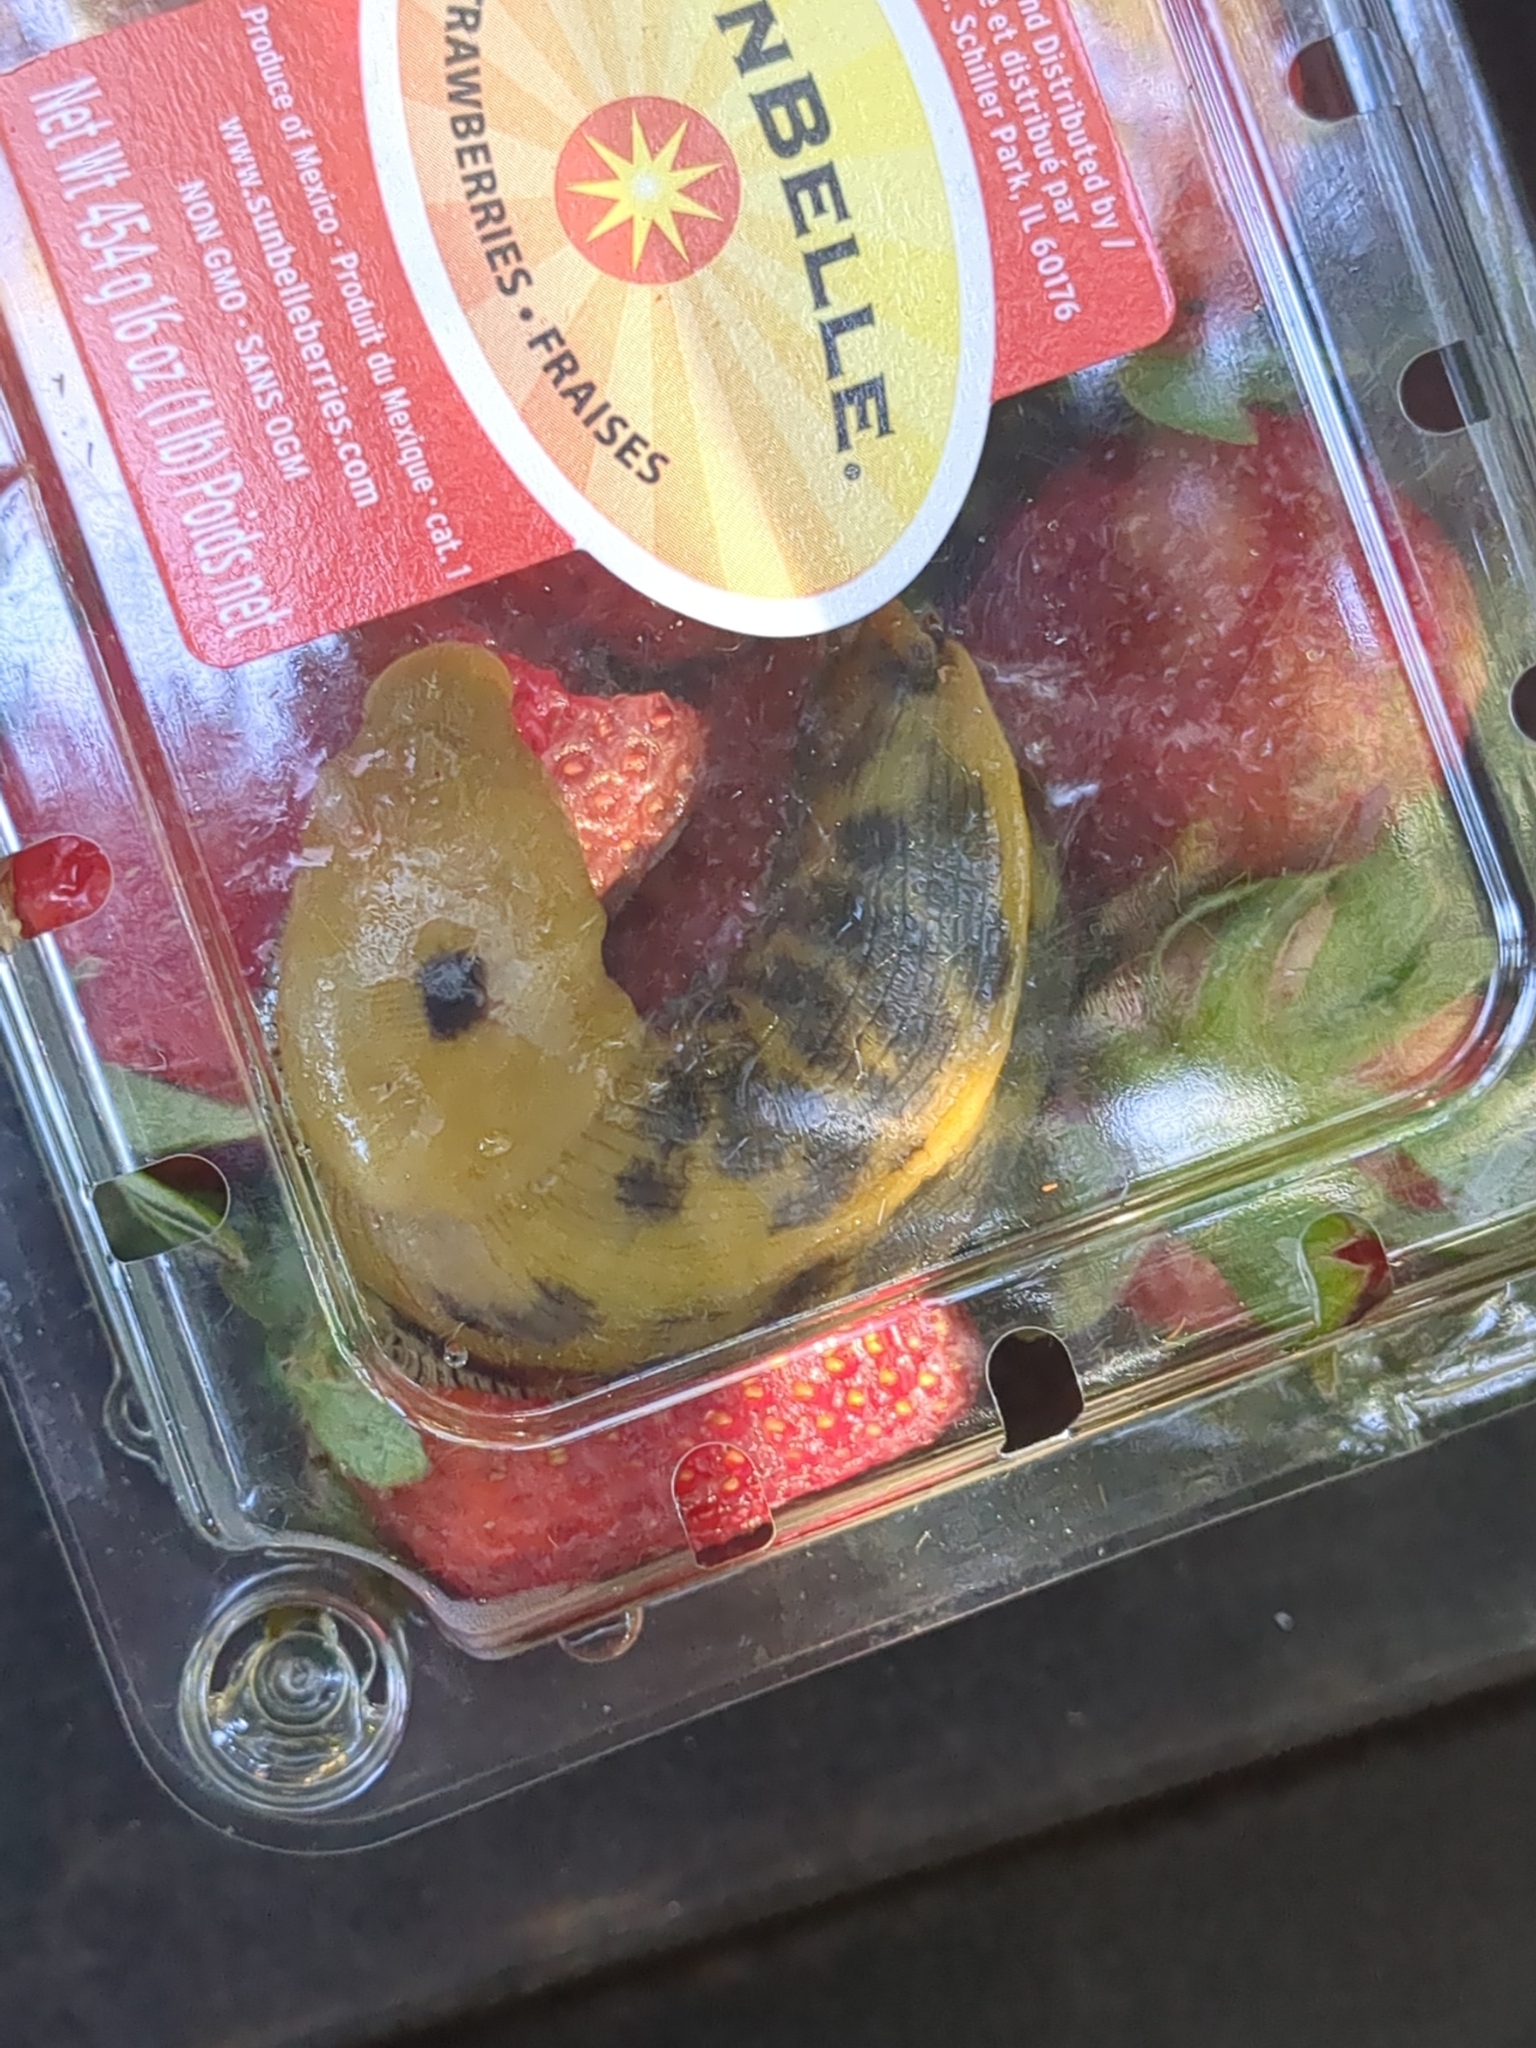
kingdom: Animalia
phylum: Mollusca
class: Gastropoda
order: Stylommatophora
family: Ariolimacidae
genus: Ariolimax
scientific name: Ariolimax buttoni
